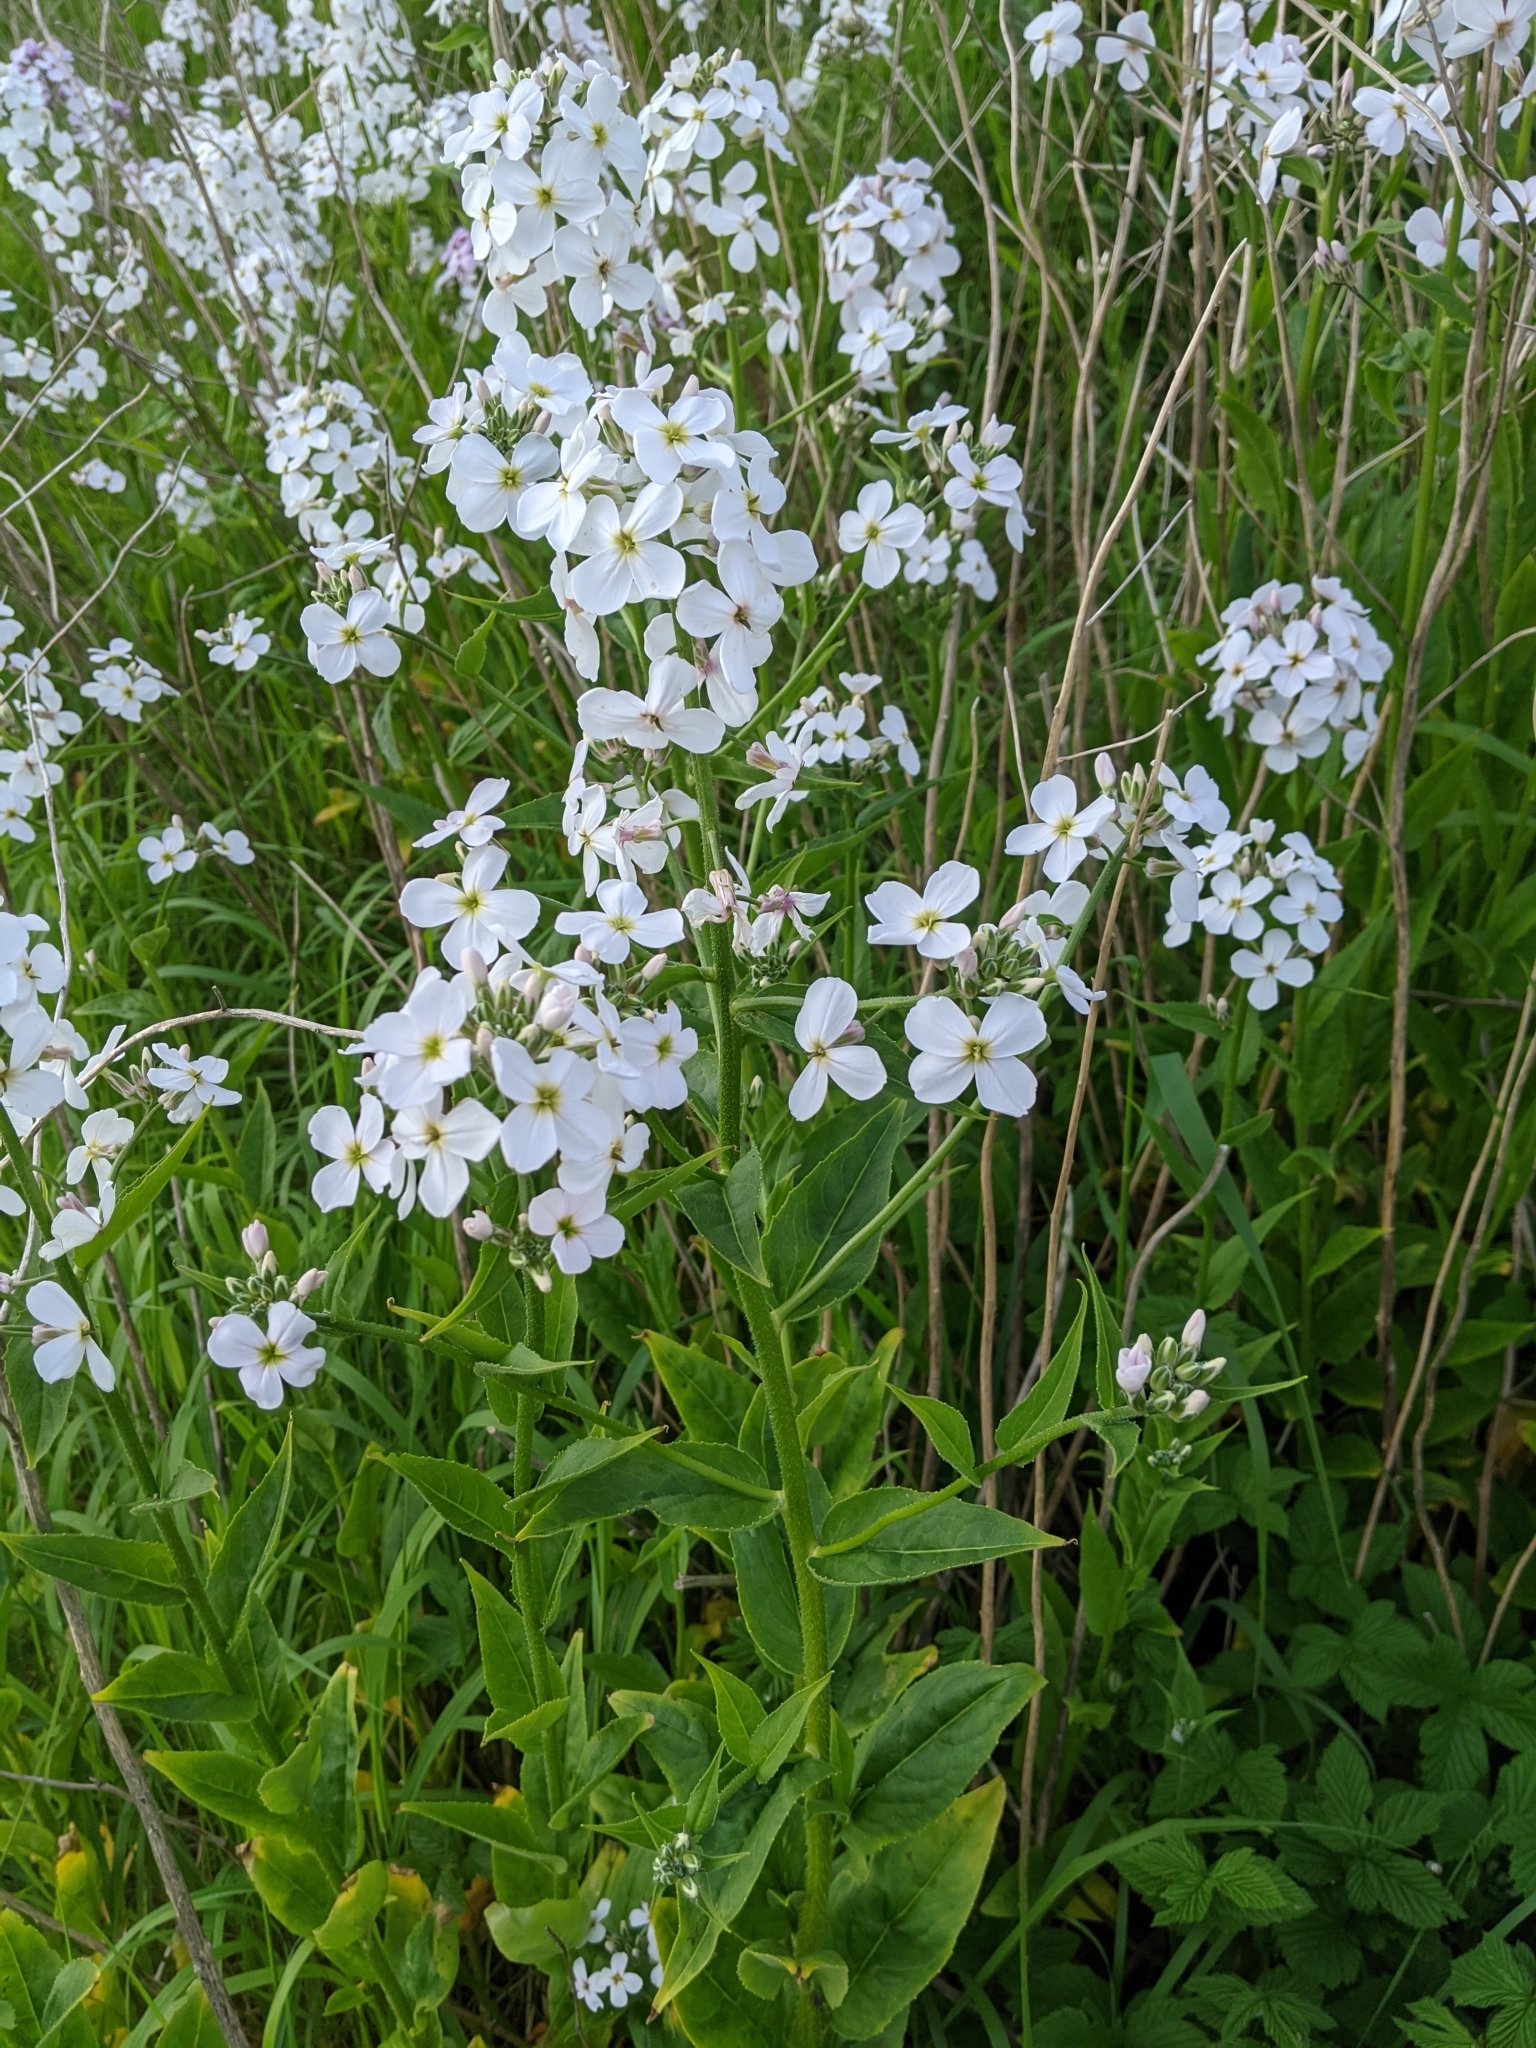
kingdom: Plantae
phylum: Tracheophyta
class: Magnoliopsida
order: Brassicales
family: Brassicaceae
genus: Hesperis
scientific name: Hesperis matronalis
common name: Dame's-violet
